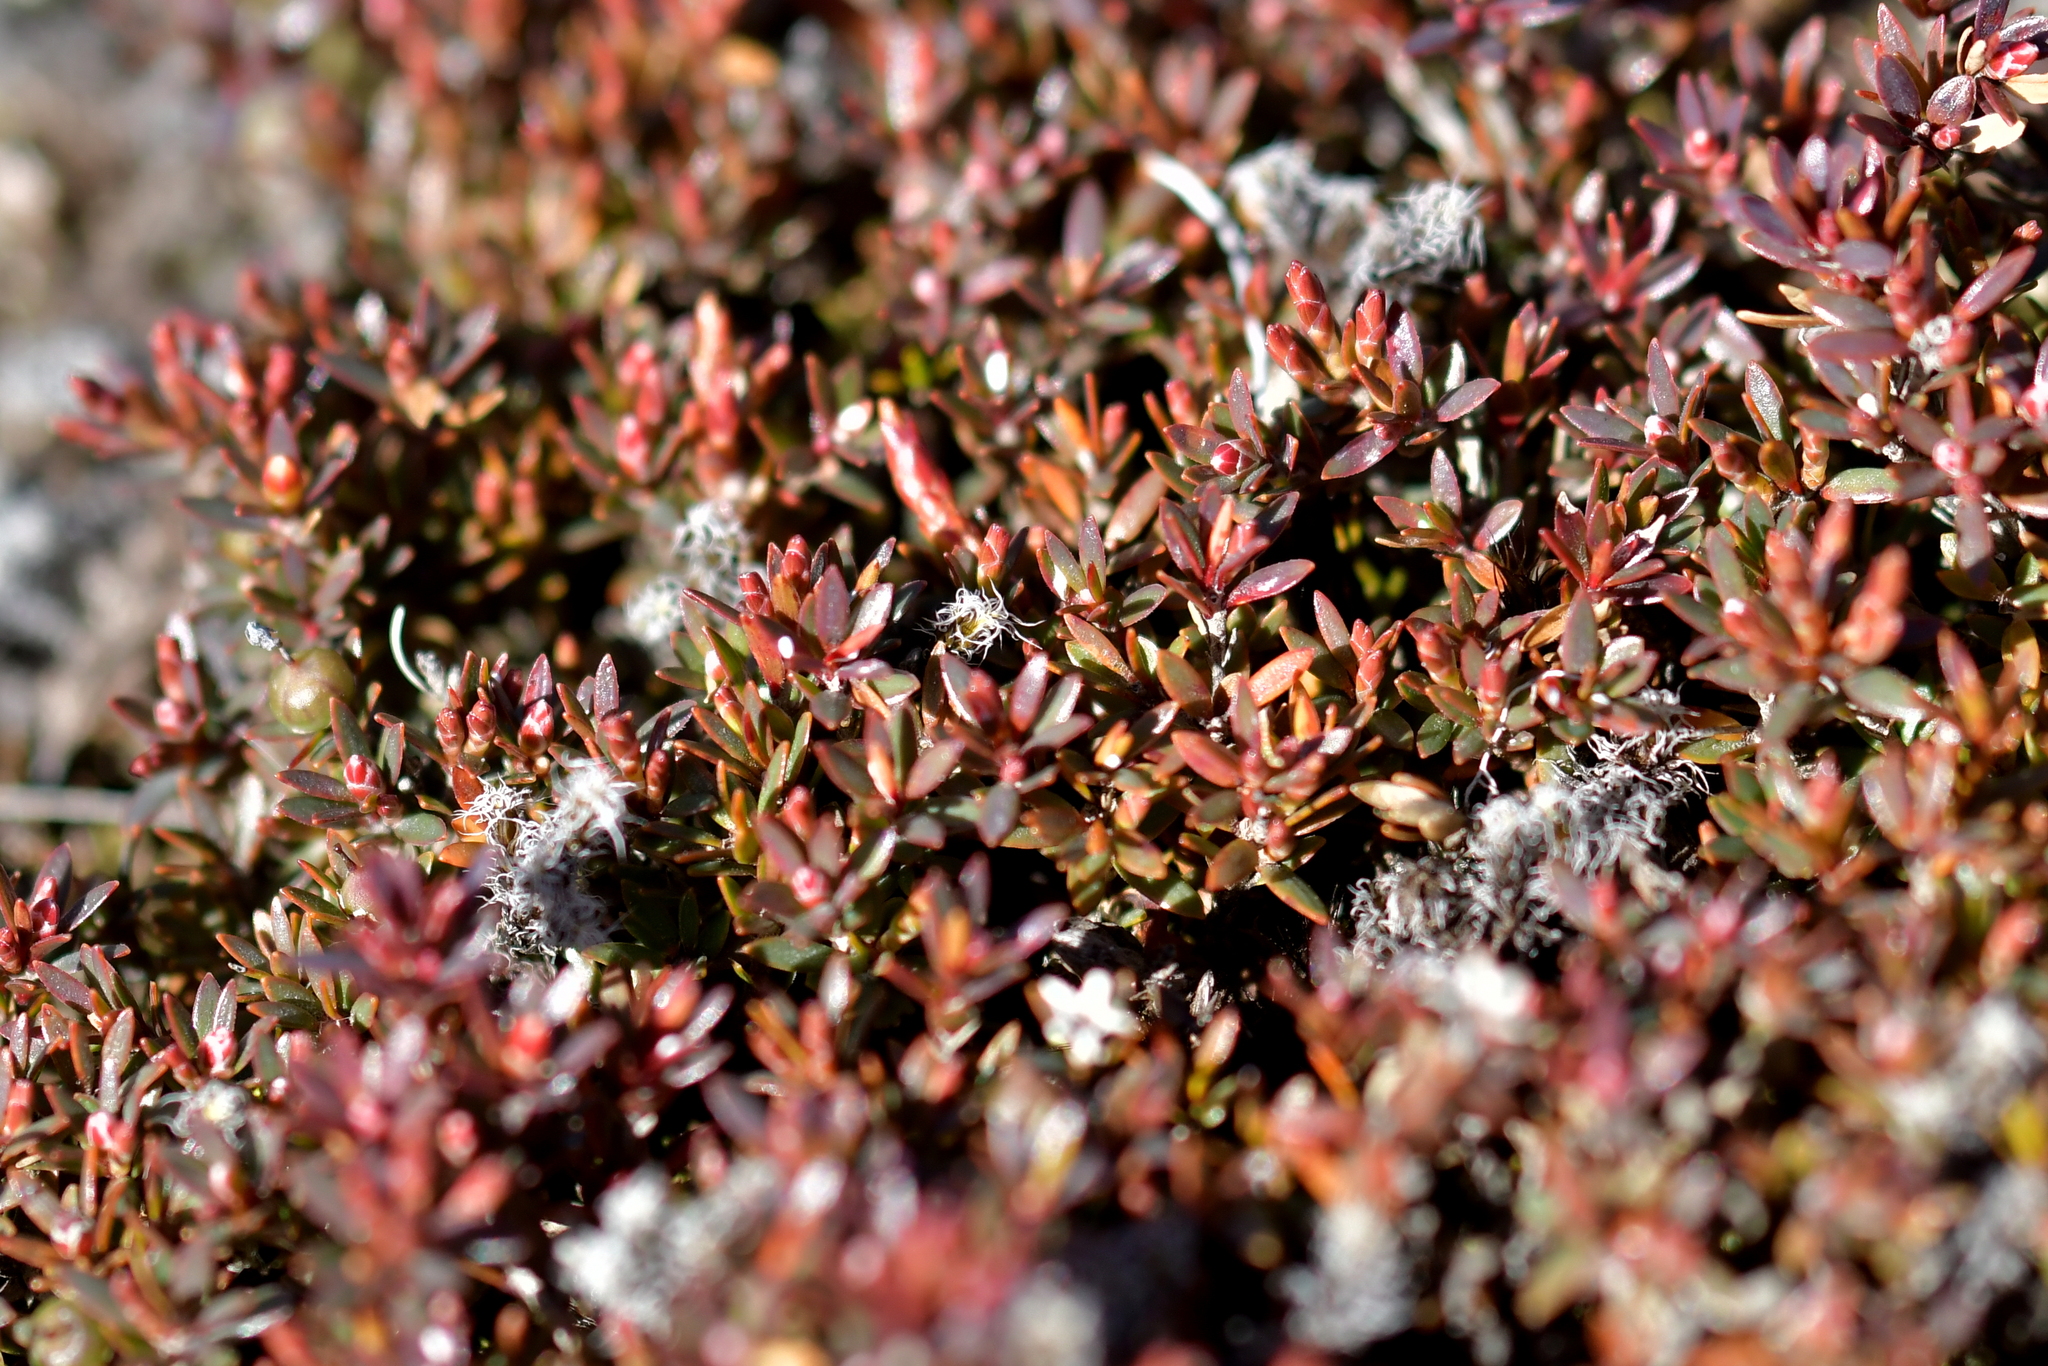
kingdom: Plantae
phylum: Tracheophyta
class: Magnoliopsida
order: Ericales
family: Ericaceae
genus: Acrothamnus
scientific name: Acrothamnus colensoi
